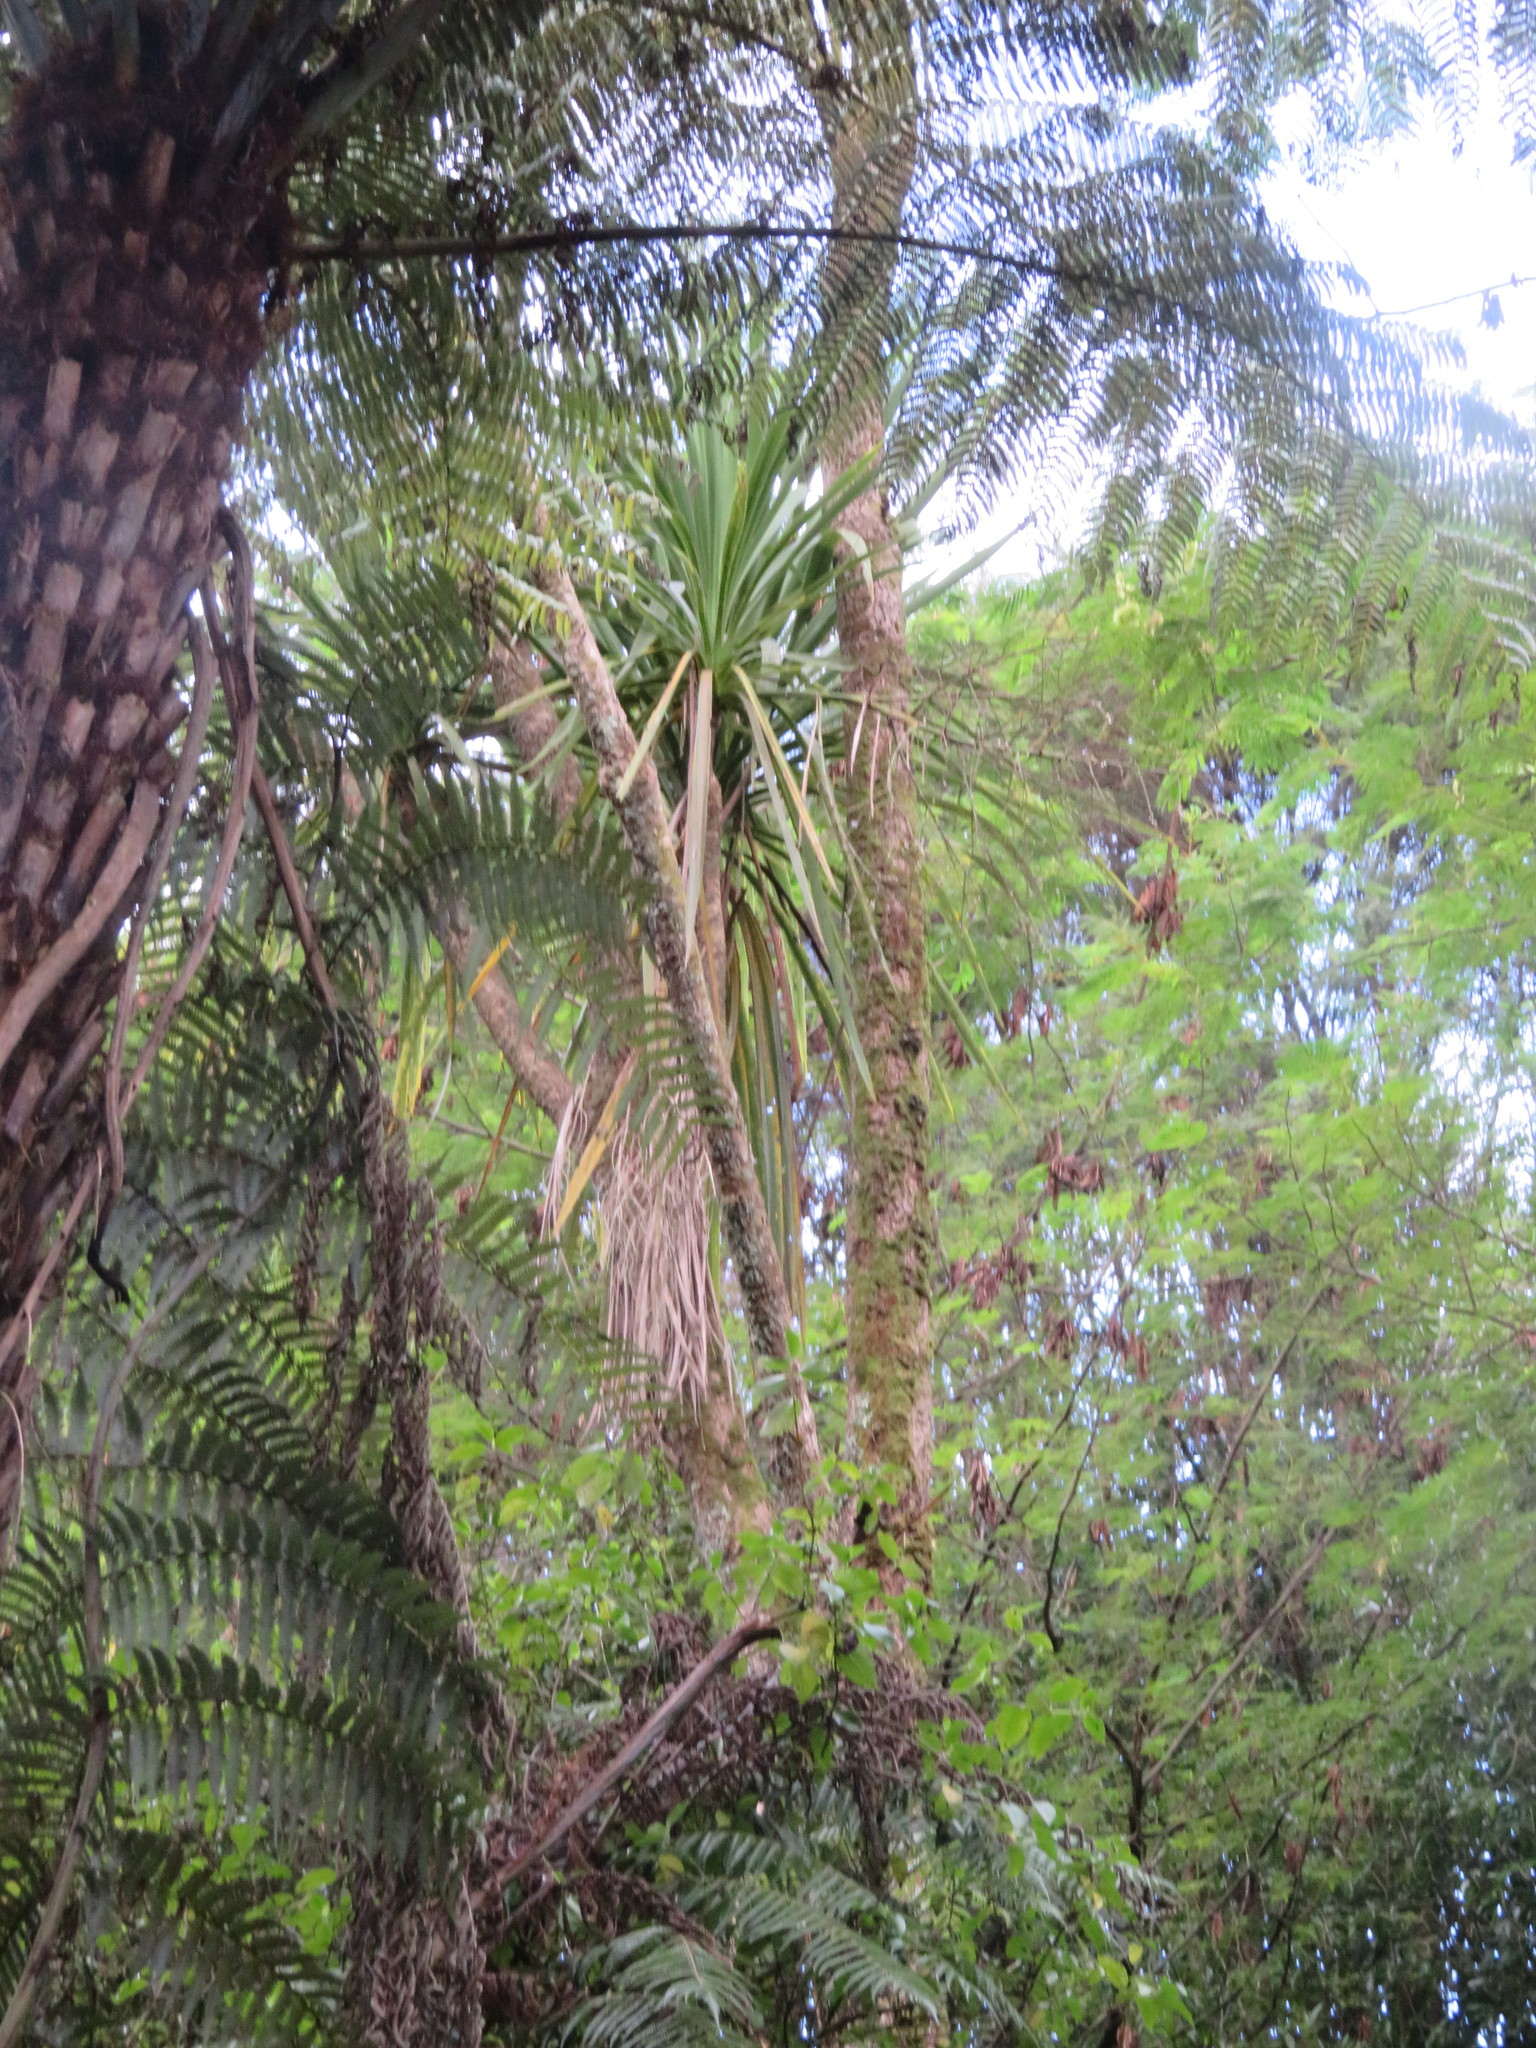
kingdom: Plantae
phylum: Tracheophyta
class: Liliopsida
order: Asparagales
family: Asparagaceae
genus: Cordyline
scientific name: Cordyline australis
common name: Cabbage-palm
